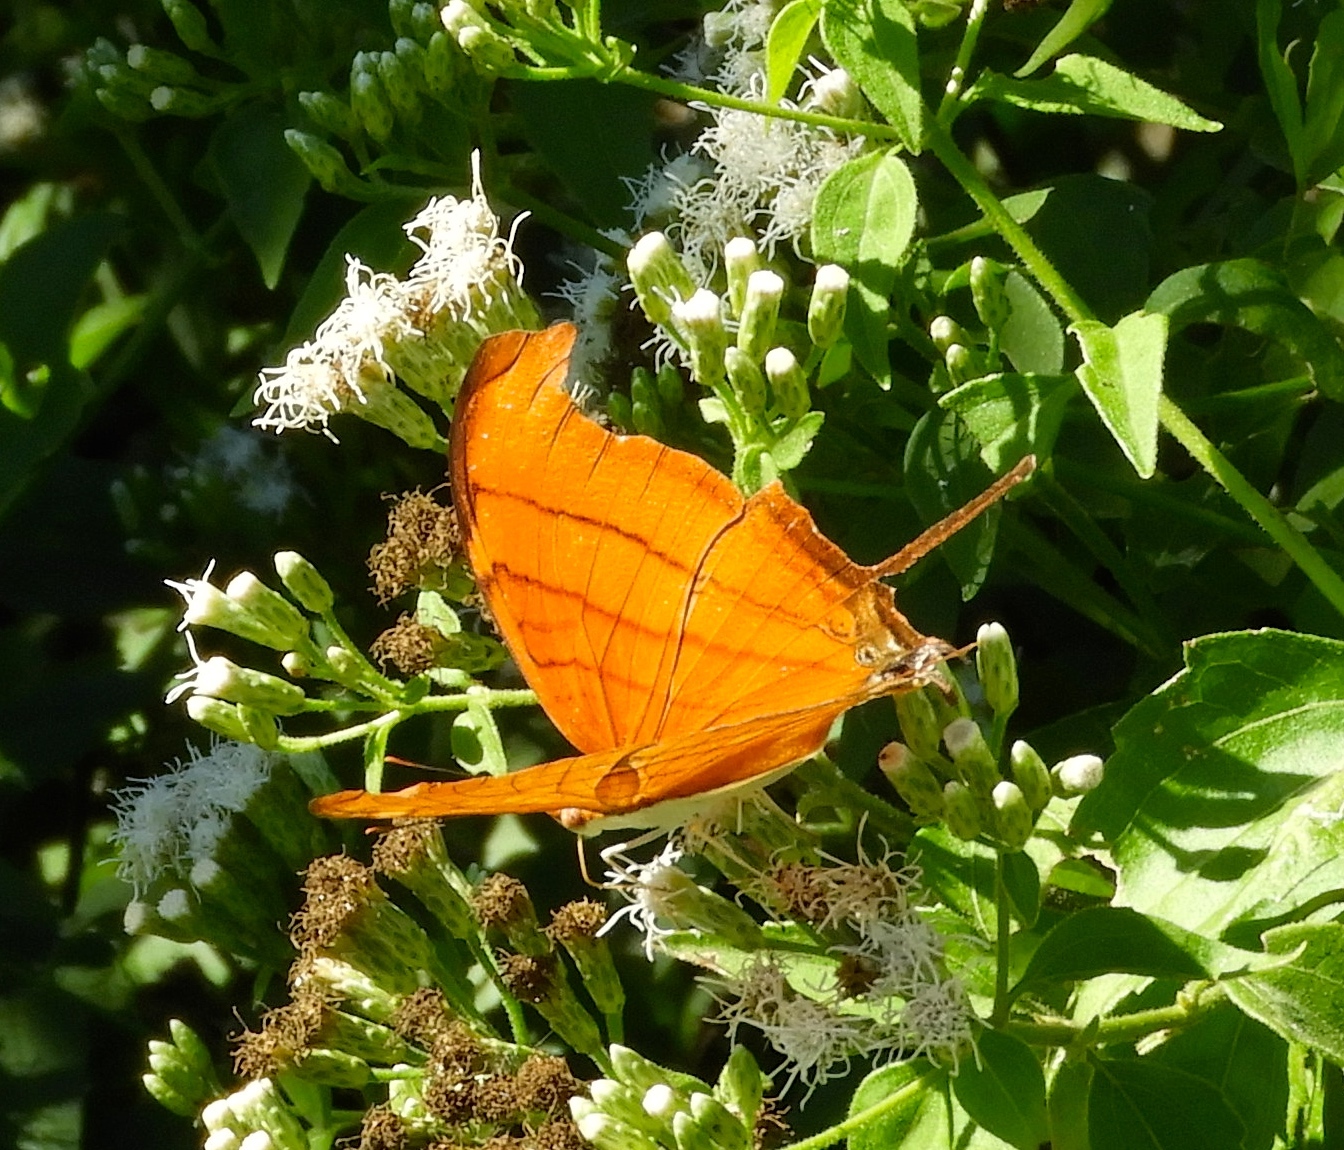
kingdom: Animalia
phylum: Arthropoda
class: Insecta
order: Lepidoptera
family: Nymphalidae
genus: Marpesia
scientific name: Marpesia petreus
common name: Red dagger wing
